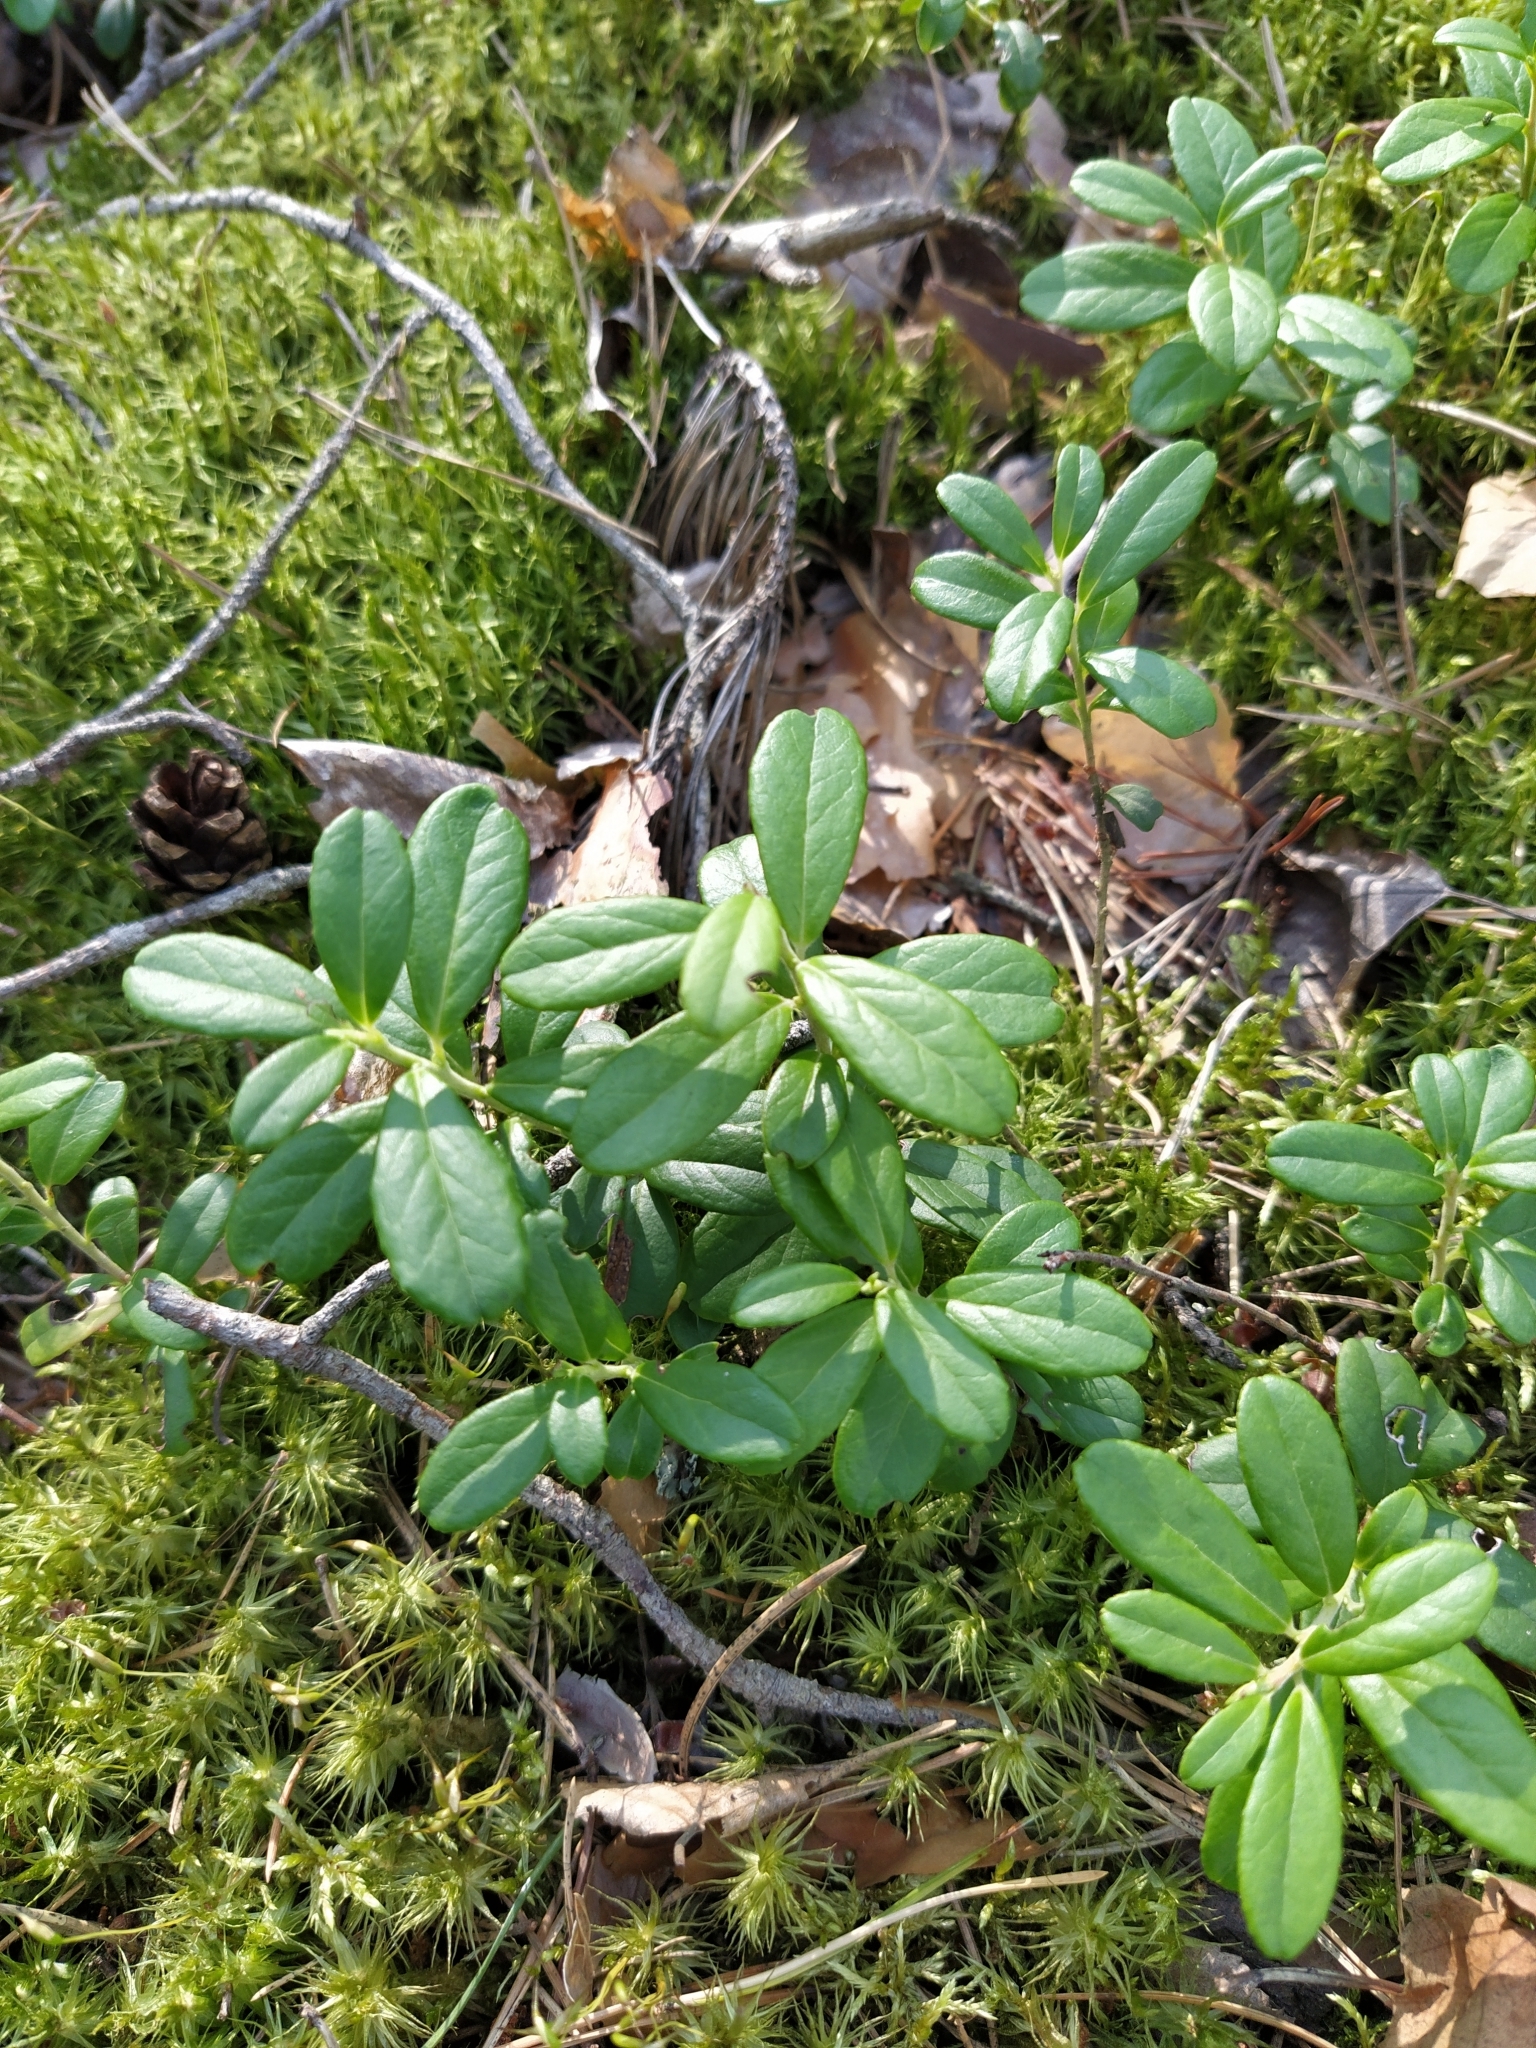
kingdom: Plantae
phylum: Tracheophyta
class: Magnoliopsida
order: Ericales
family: Ericaceae
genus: Vaccinium
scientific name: Vaccinium vitis-idaea
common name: Cowberry
